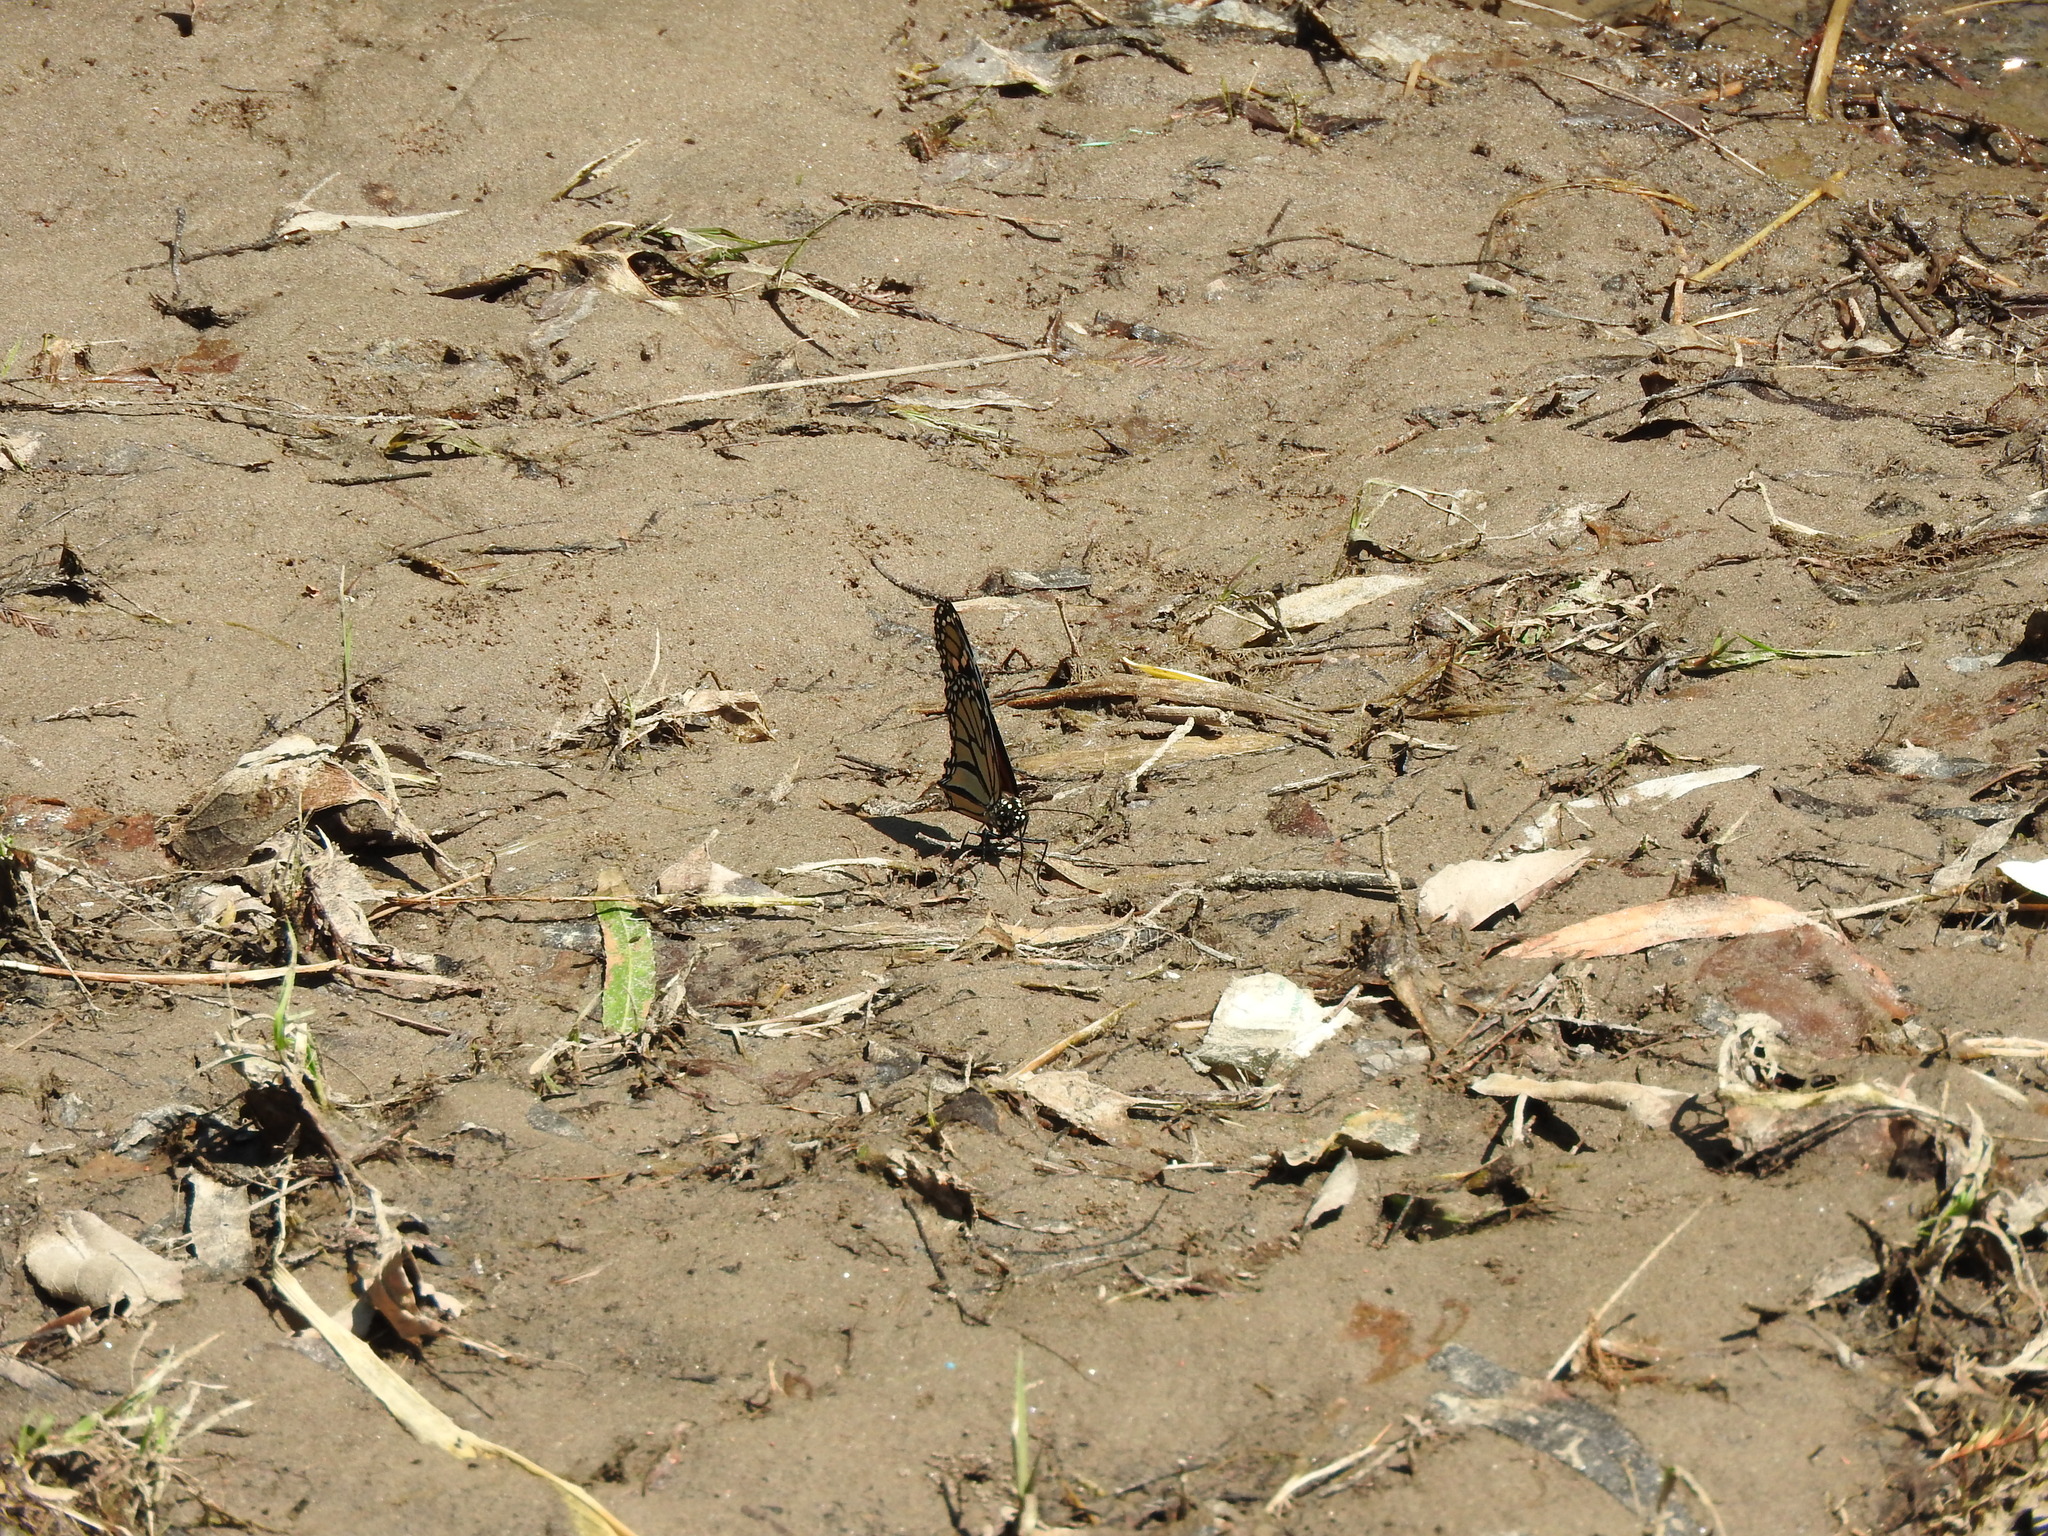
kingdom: Animalia
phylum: Arthropoda
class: Insecta
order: Lepidoptera
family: Nymphalidae
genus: Danaus
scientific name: Danaus plexippus
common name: Monarch
